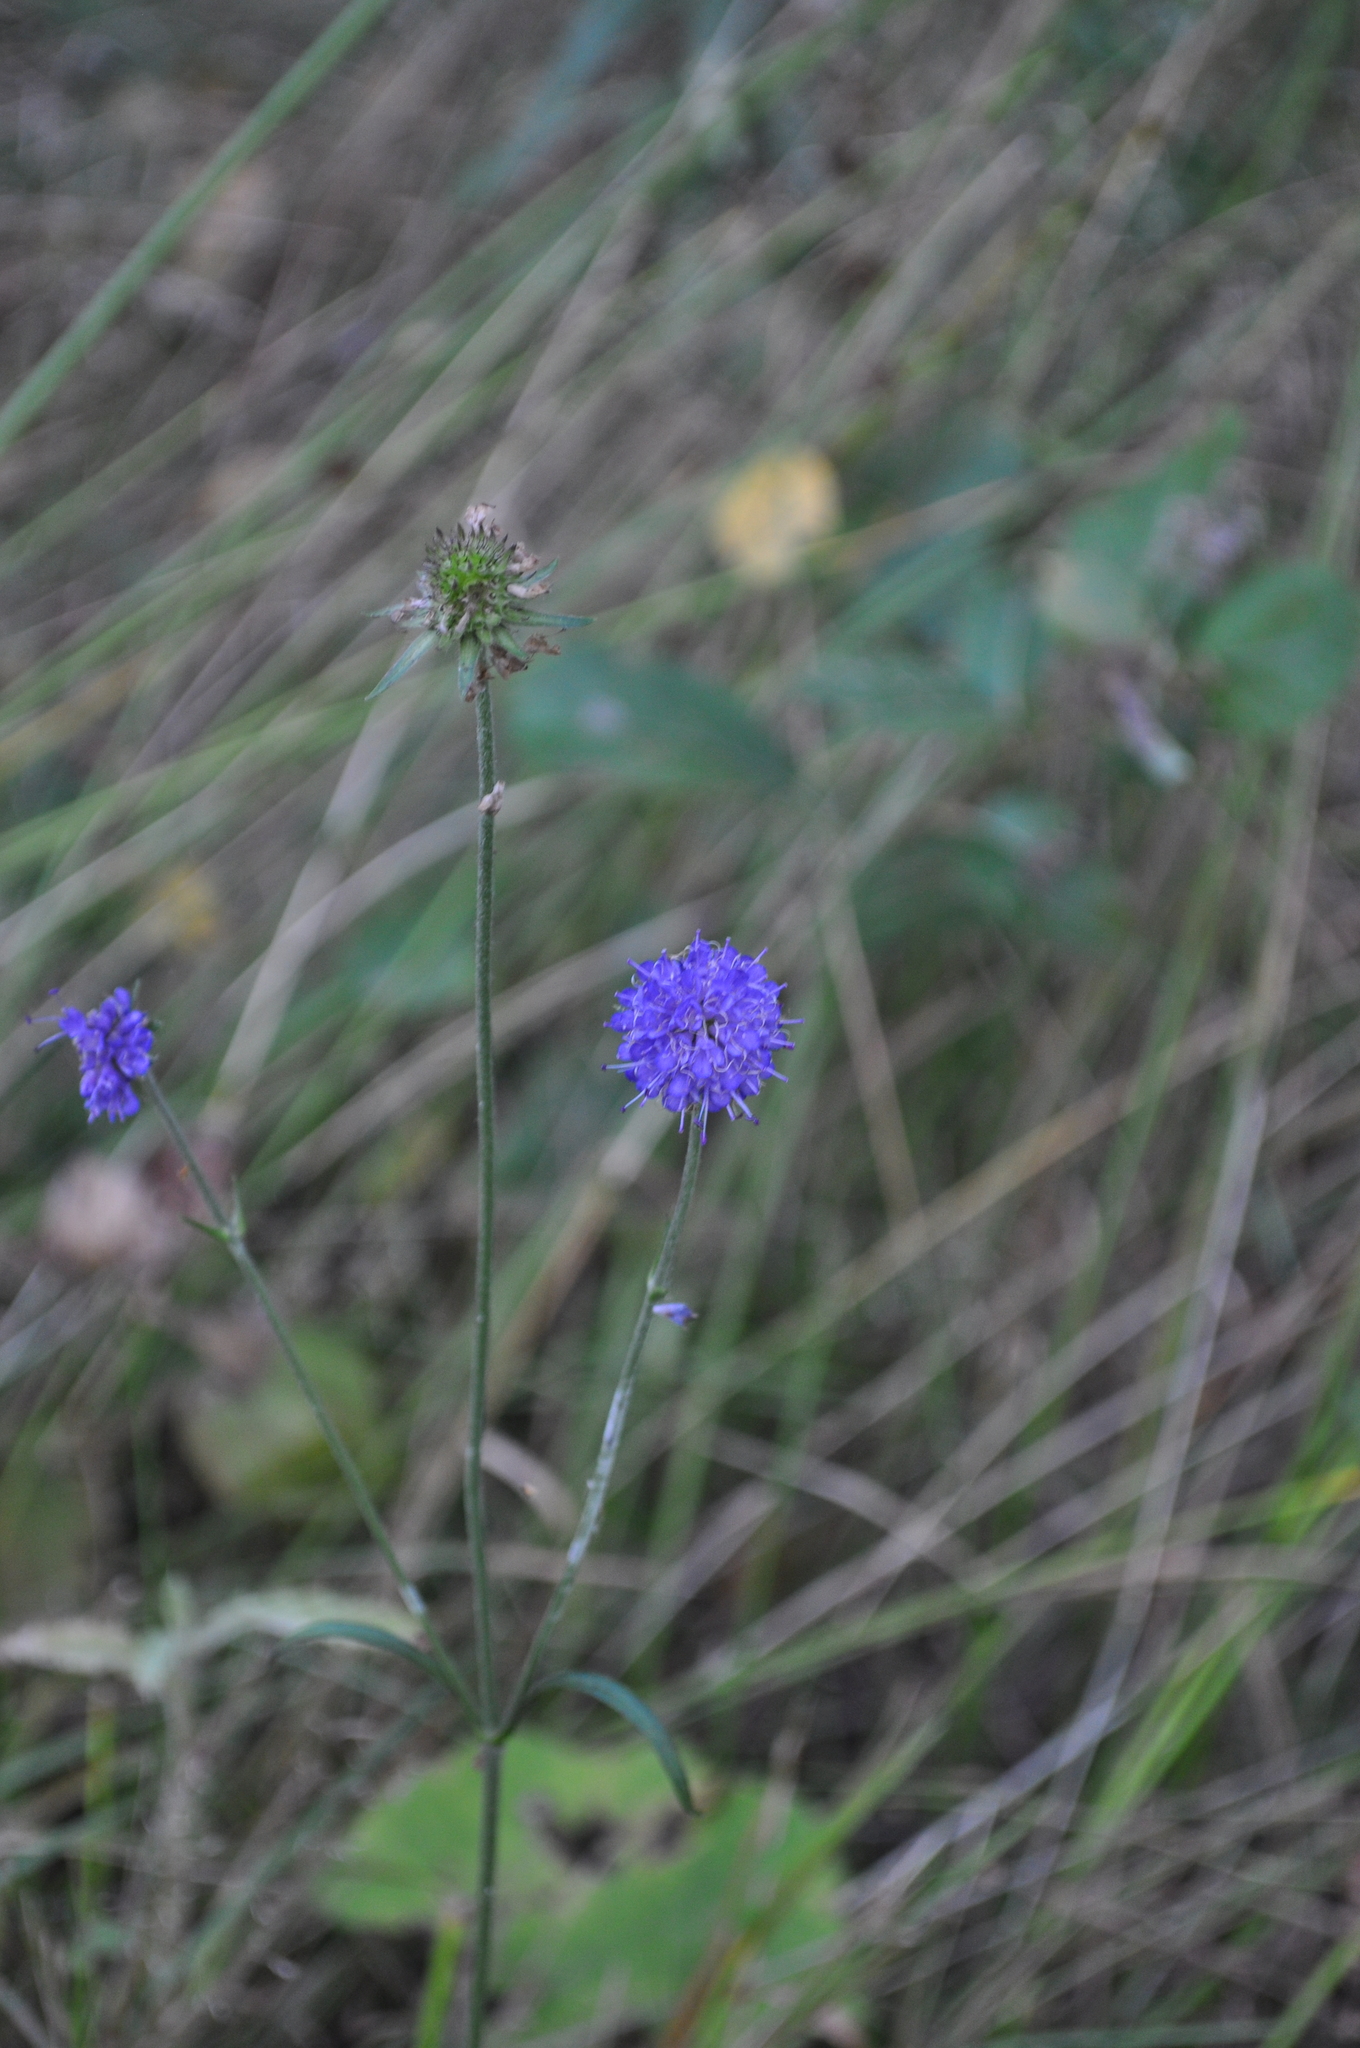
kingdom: Plantae
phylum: Tracheophyta
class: Magnoliopsida
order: Dipsacales
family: Caprifoliaceae
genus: Succisa
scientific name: Succisa pratensis
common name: Devil's-bit
